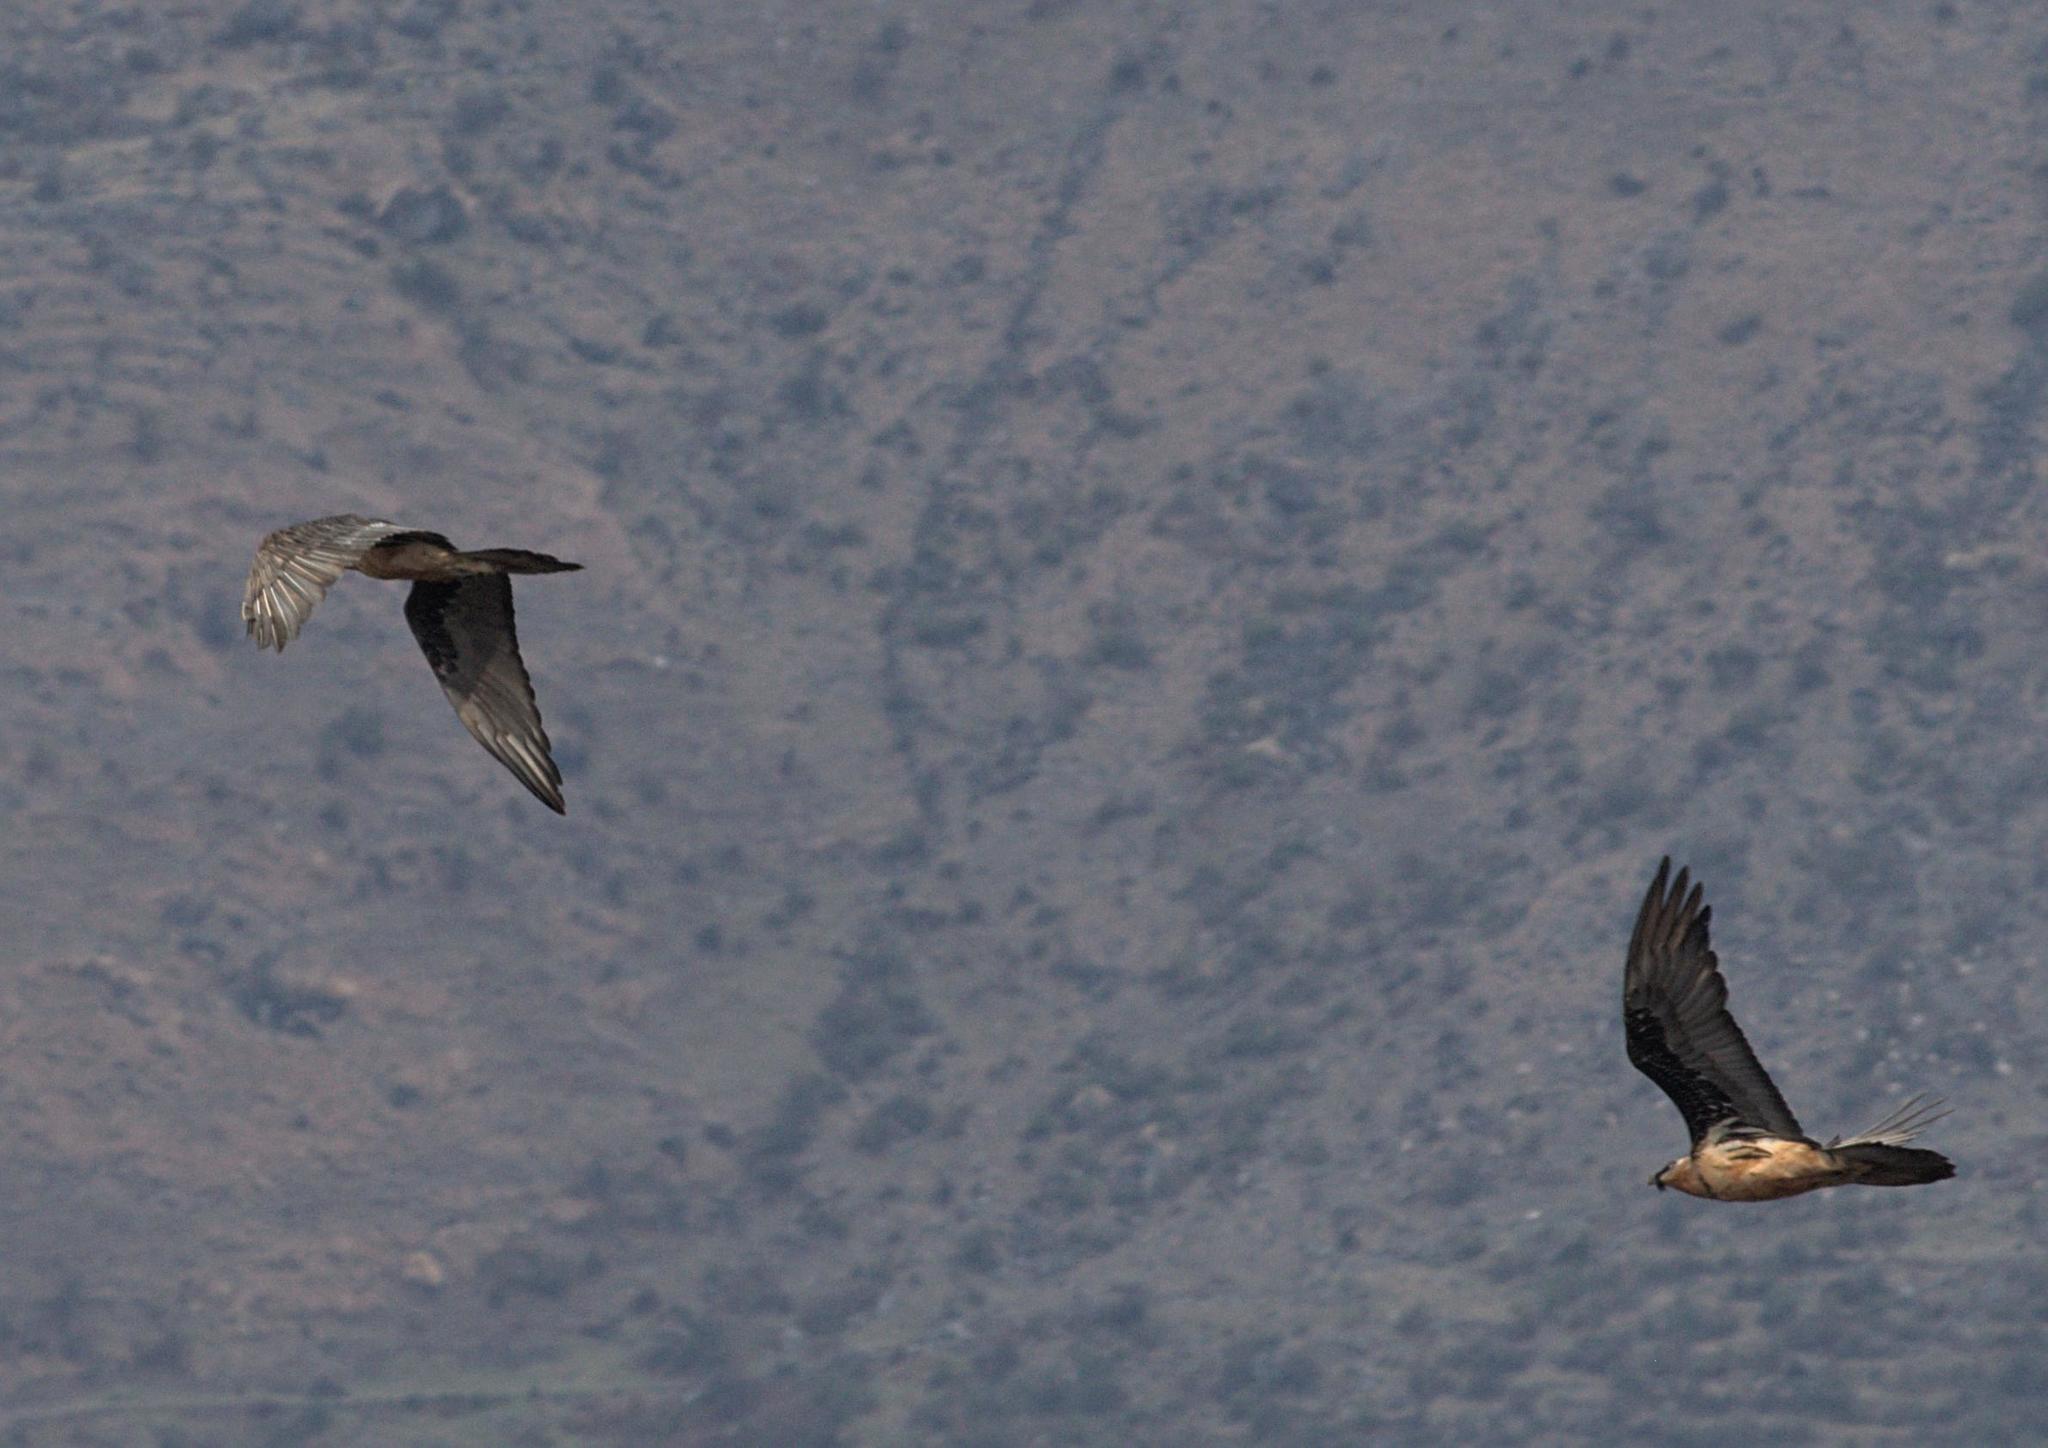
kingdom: Animalia
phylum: Chordata
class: Aves
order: Accipitriformes
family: Accipitridae
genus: Gypaetus
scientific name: Gypaetus barbatus
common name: Bearded vulture
